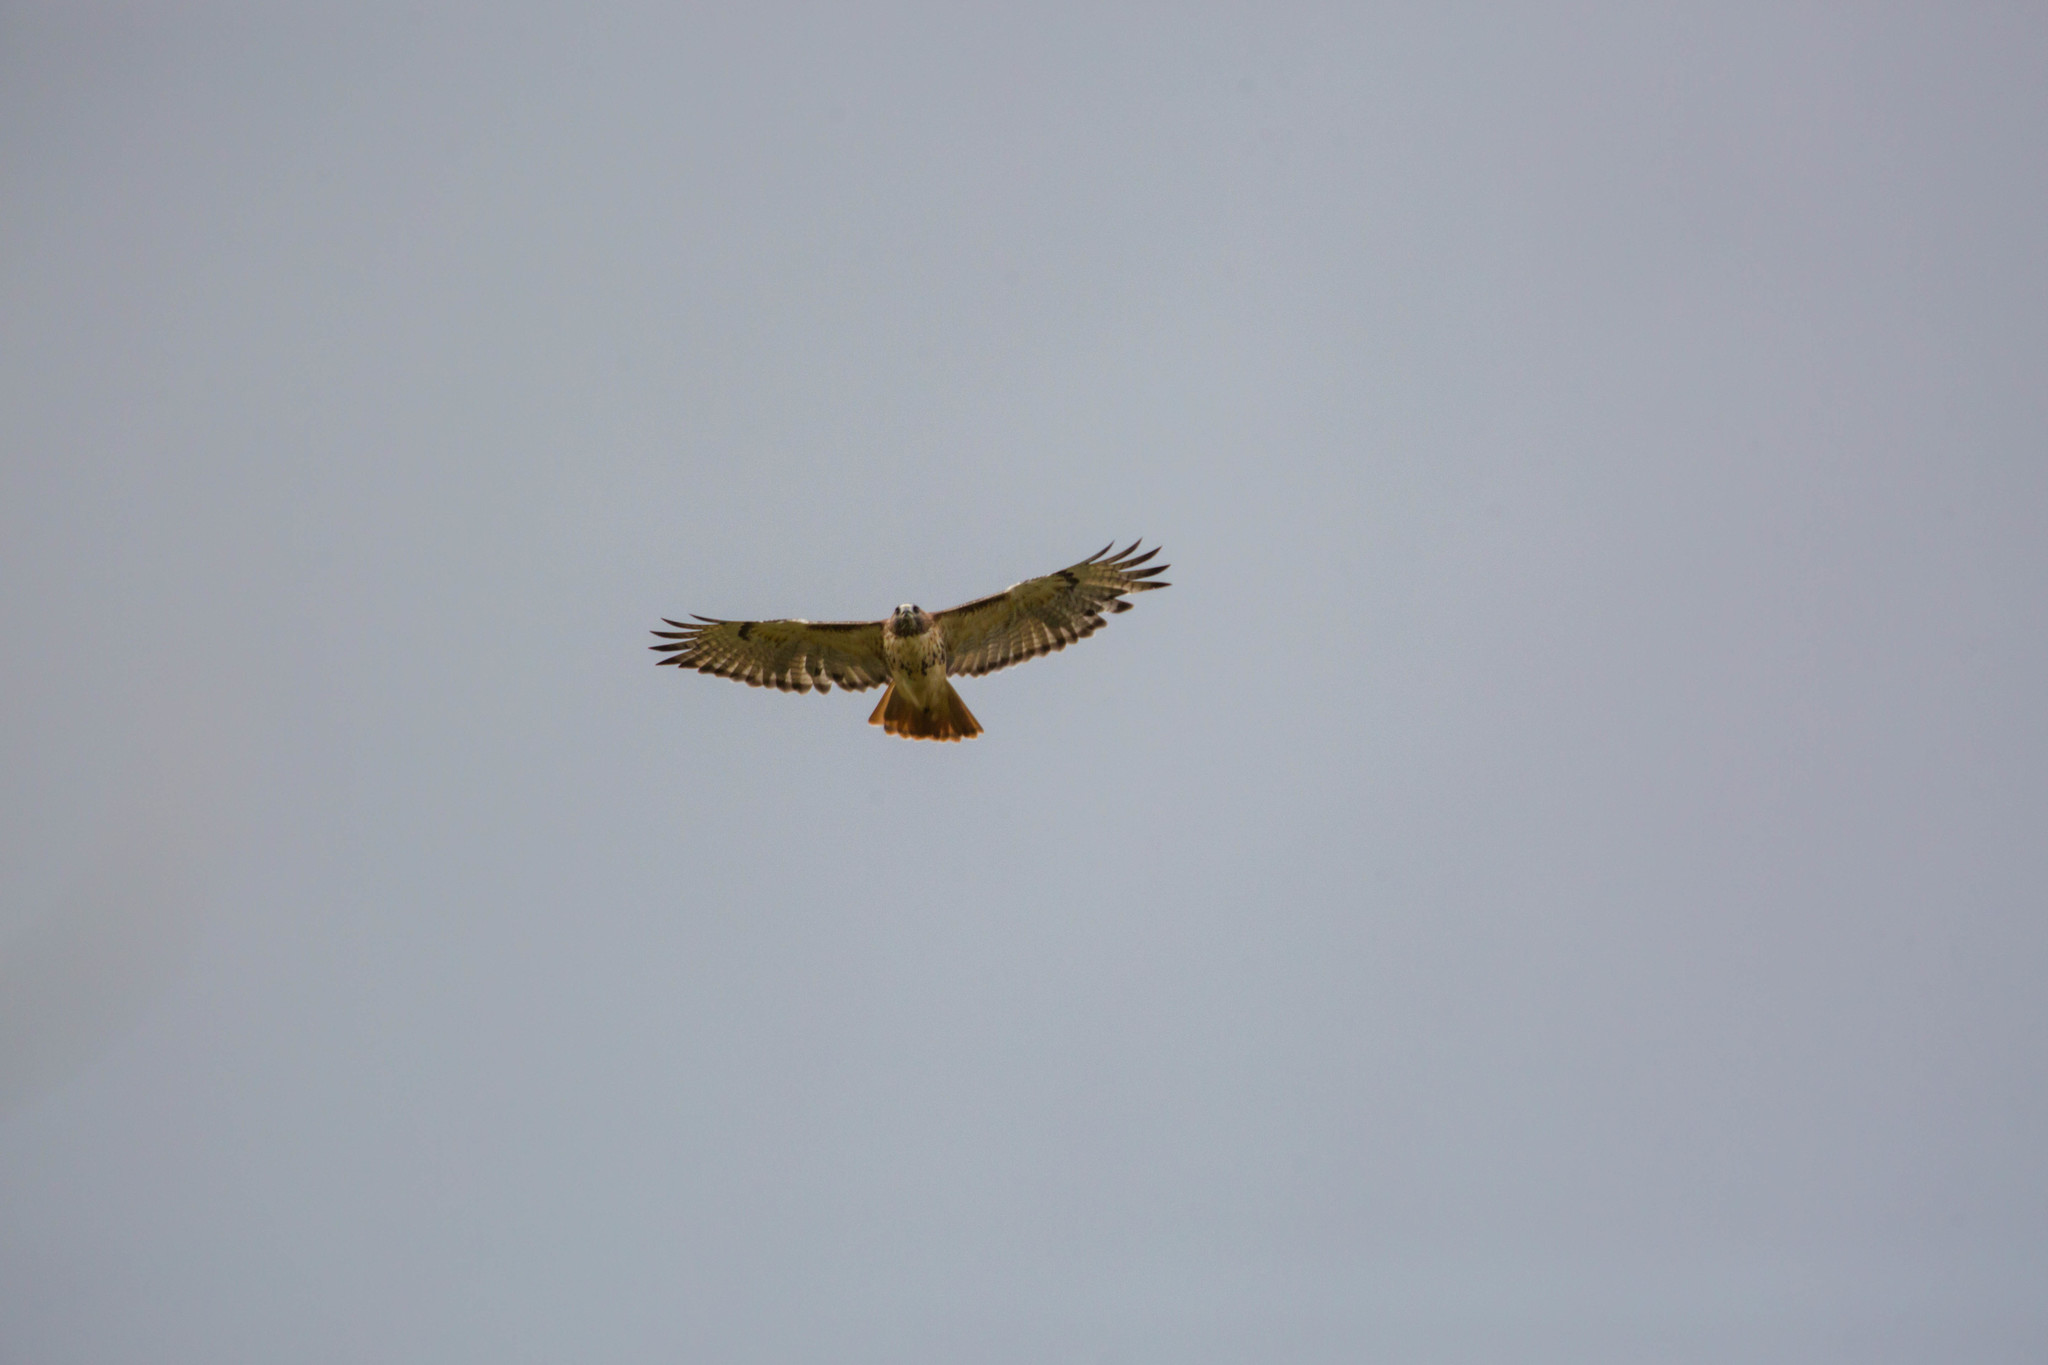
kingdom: Animalia
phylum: Chordata
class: Aves
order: Accipitriformes
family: Accipitridae
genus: Buteo
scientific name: Buteo jamaicensis
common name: Red-tailed hawk
